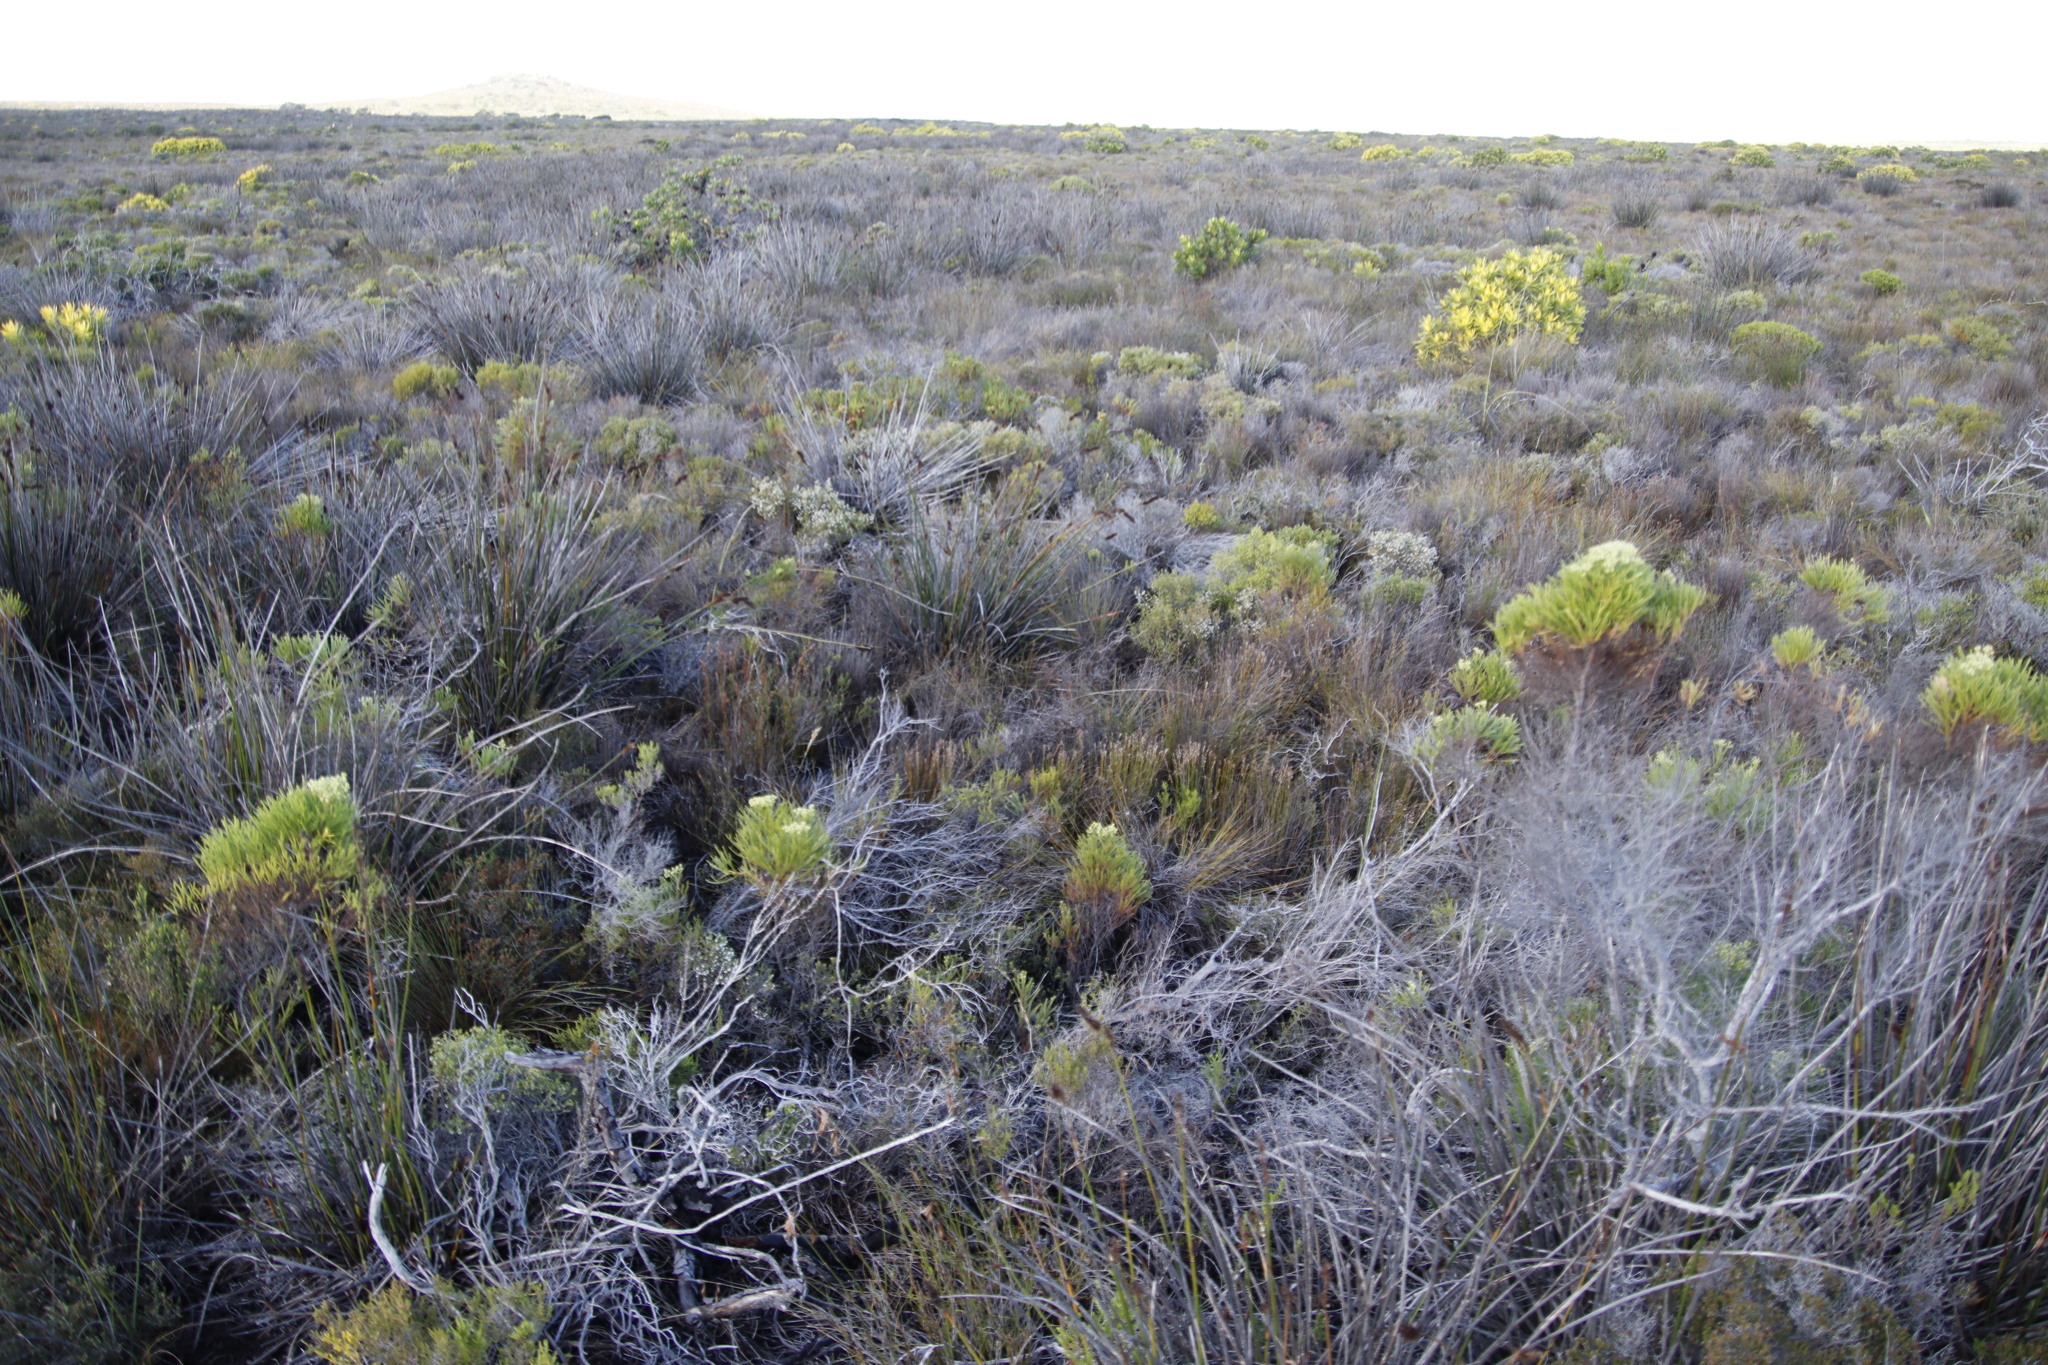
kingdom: Plantae
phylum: Tracheophyta
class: Magnoliopsida
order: Ericales
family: Ericaceae
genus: Erica
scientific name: Erica capensis
